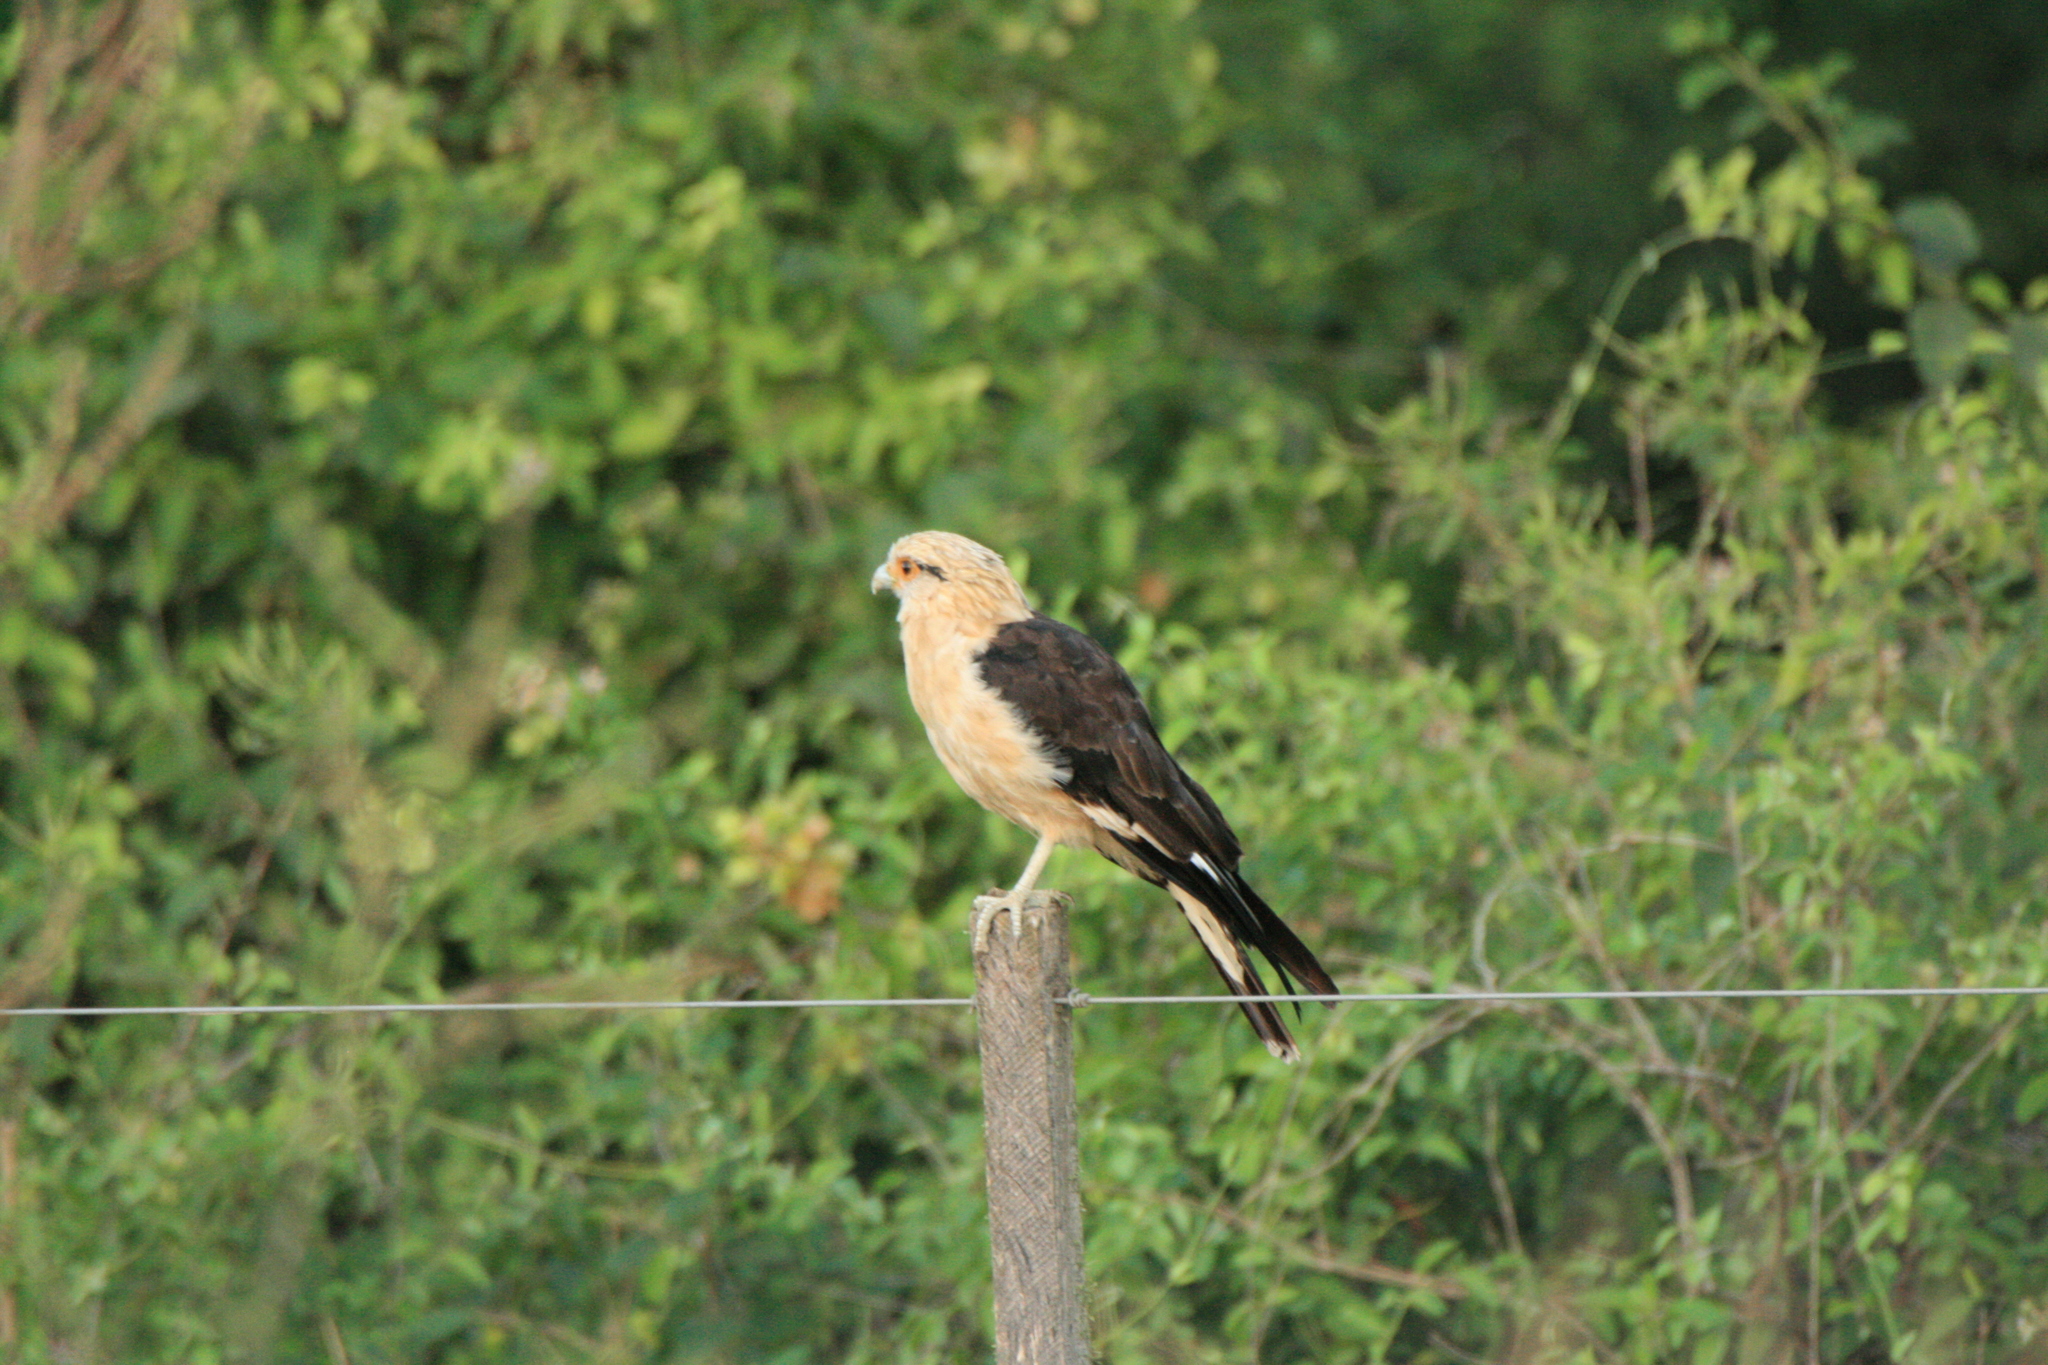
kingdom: Animalia
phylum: Chordata
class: Aves
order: Falconiformes
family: Falconidae
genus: Daptrius
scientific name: Daptrius
